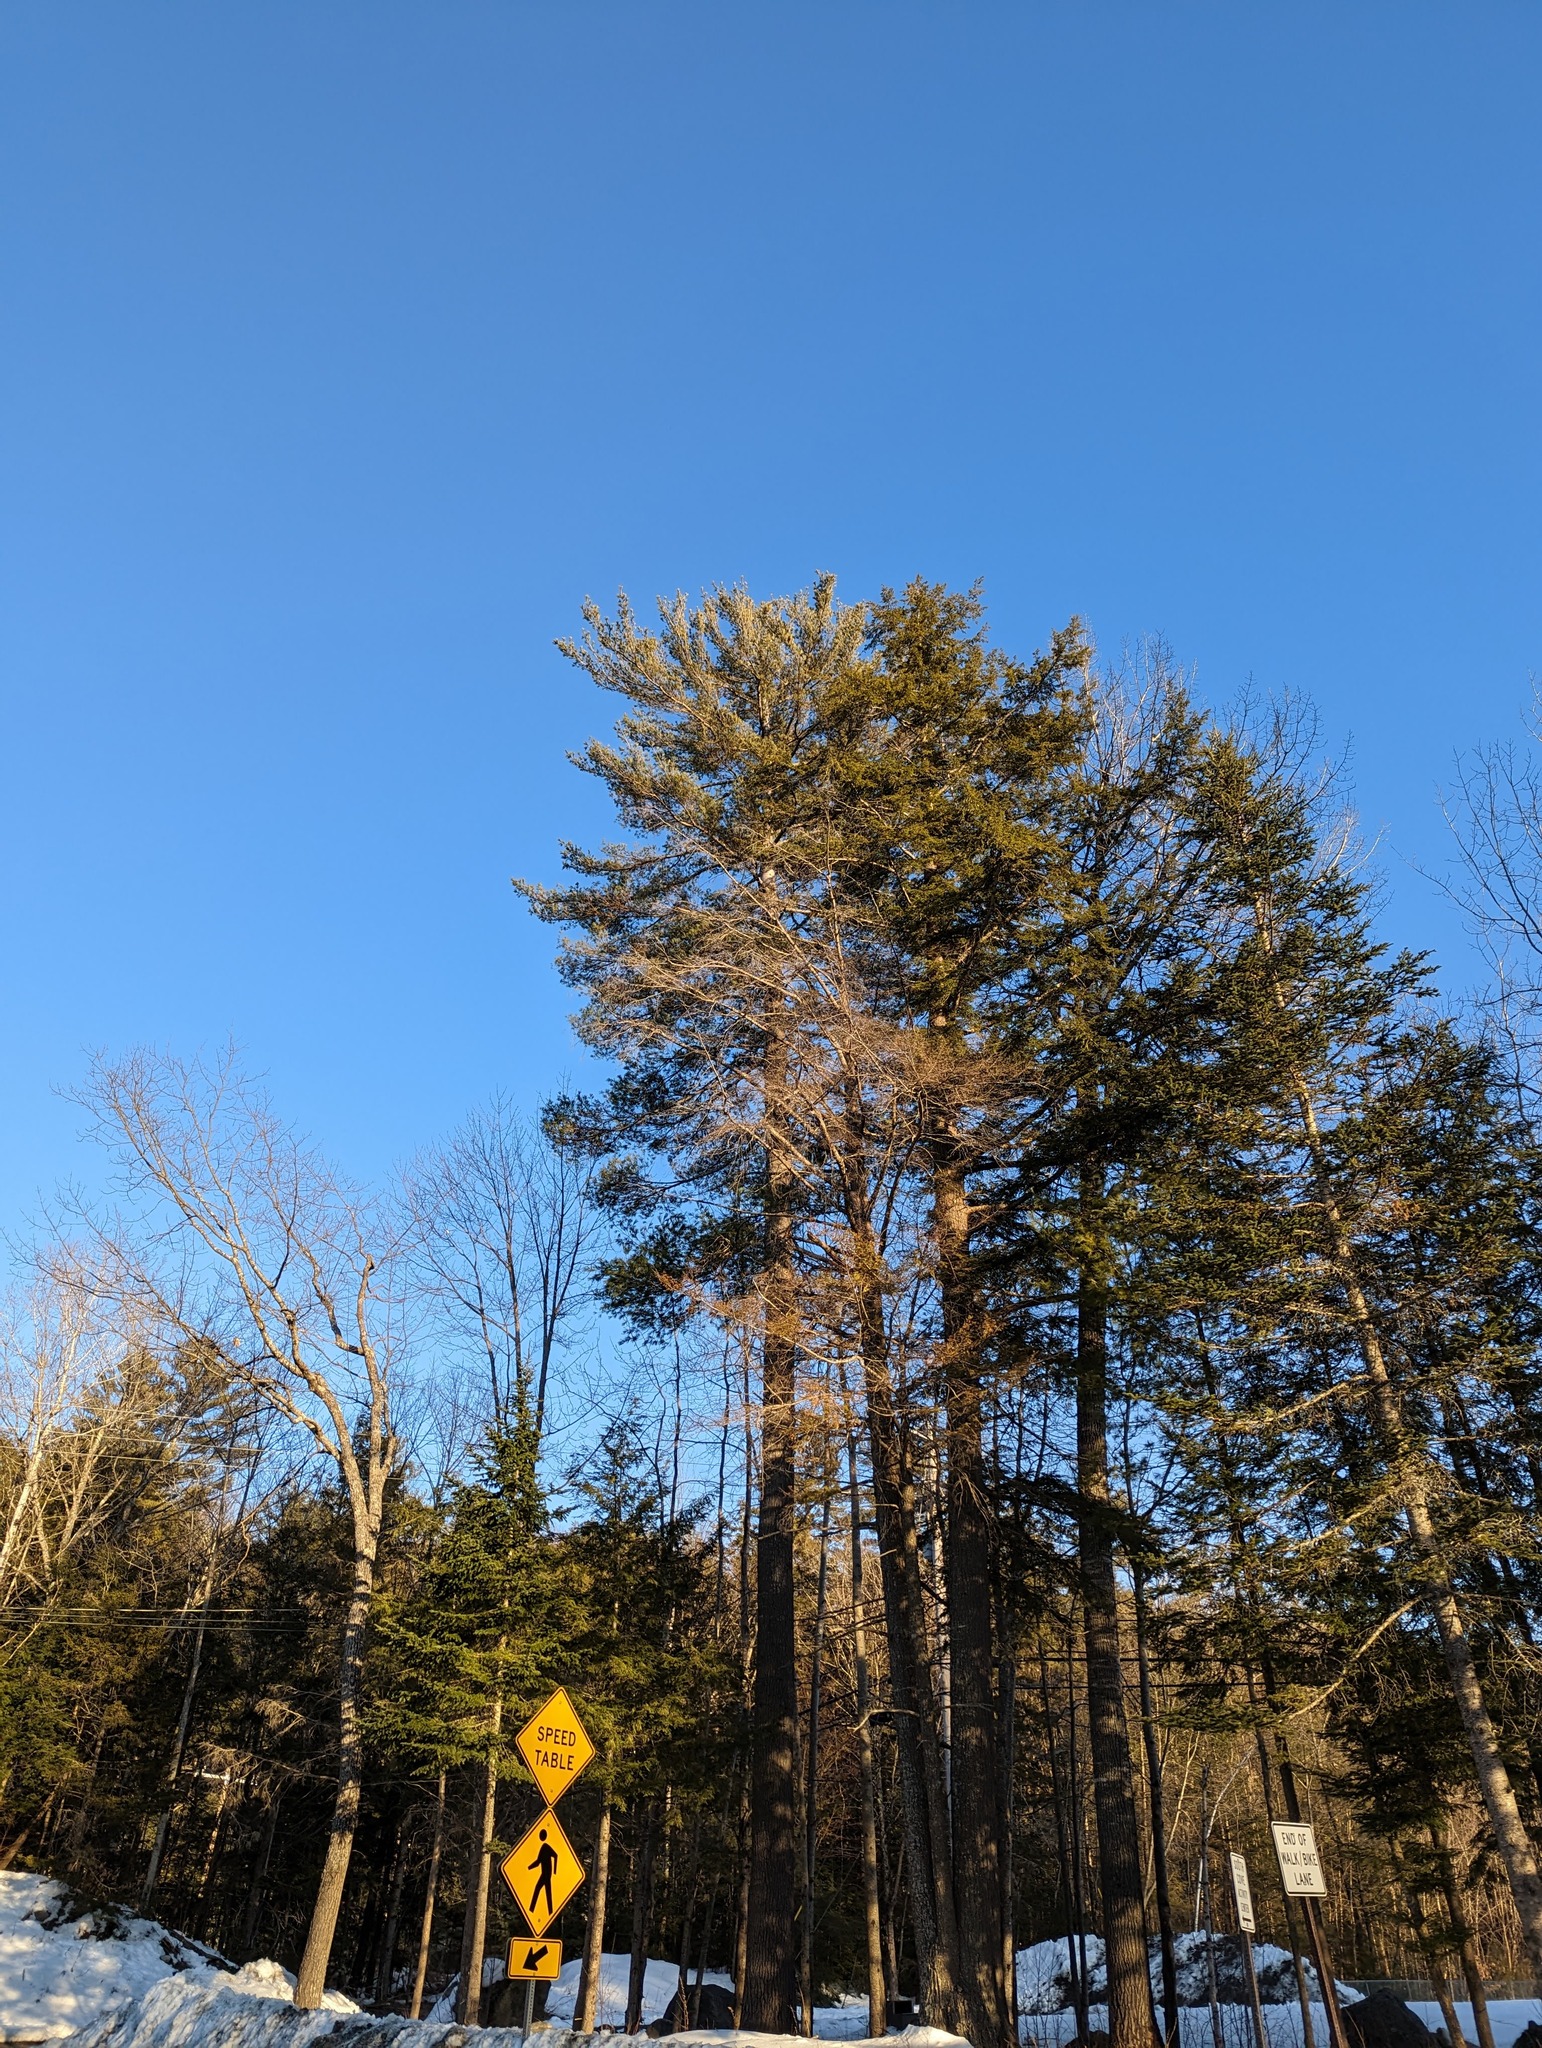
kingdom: Plantae
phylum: Tracheophyta
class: Pinopsida
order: Pinales
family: Pinaceae
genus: Pinus
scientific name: Pinus strobus
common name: Weymouth pine
